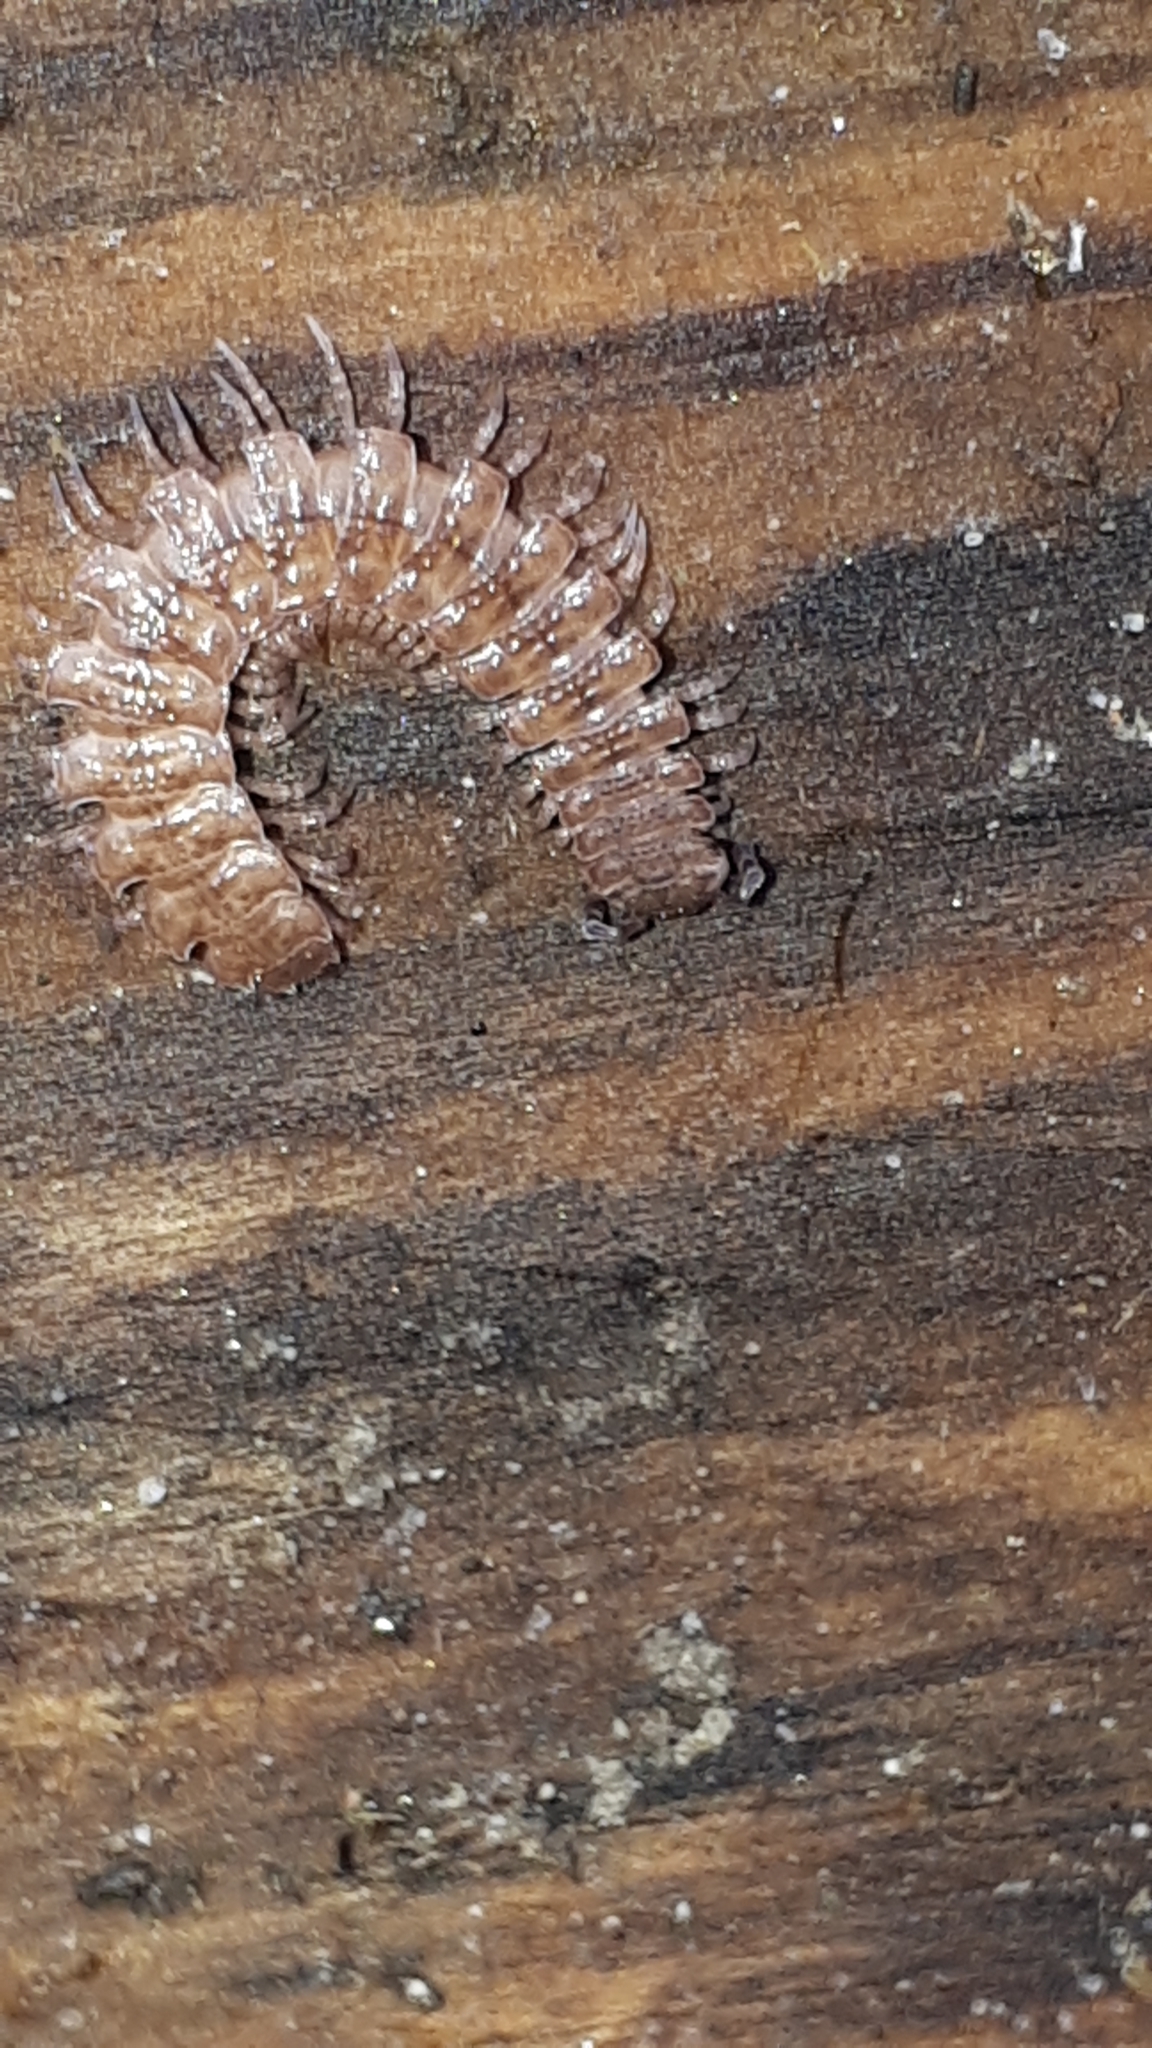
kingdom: Animalia
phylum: Arthropoda
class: Diplopoda
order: Polydesmida
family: Polydesmidae
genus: Polydesmus
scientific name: Polydesmus angustus
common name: Flat millipede
